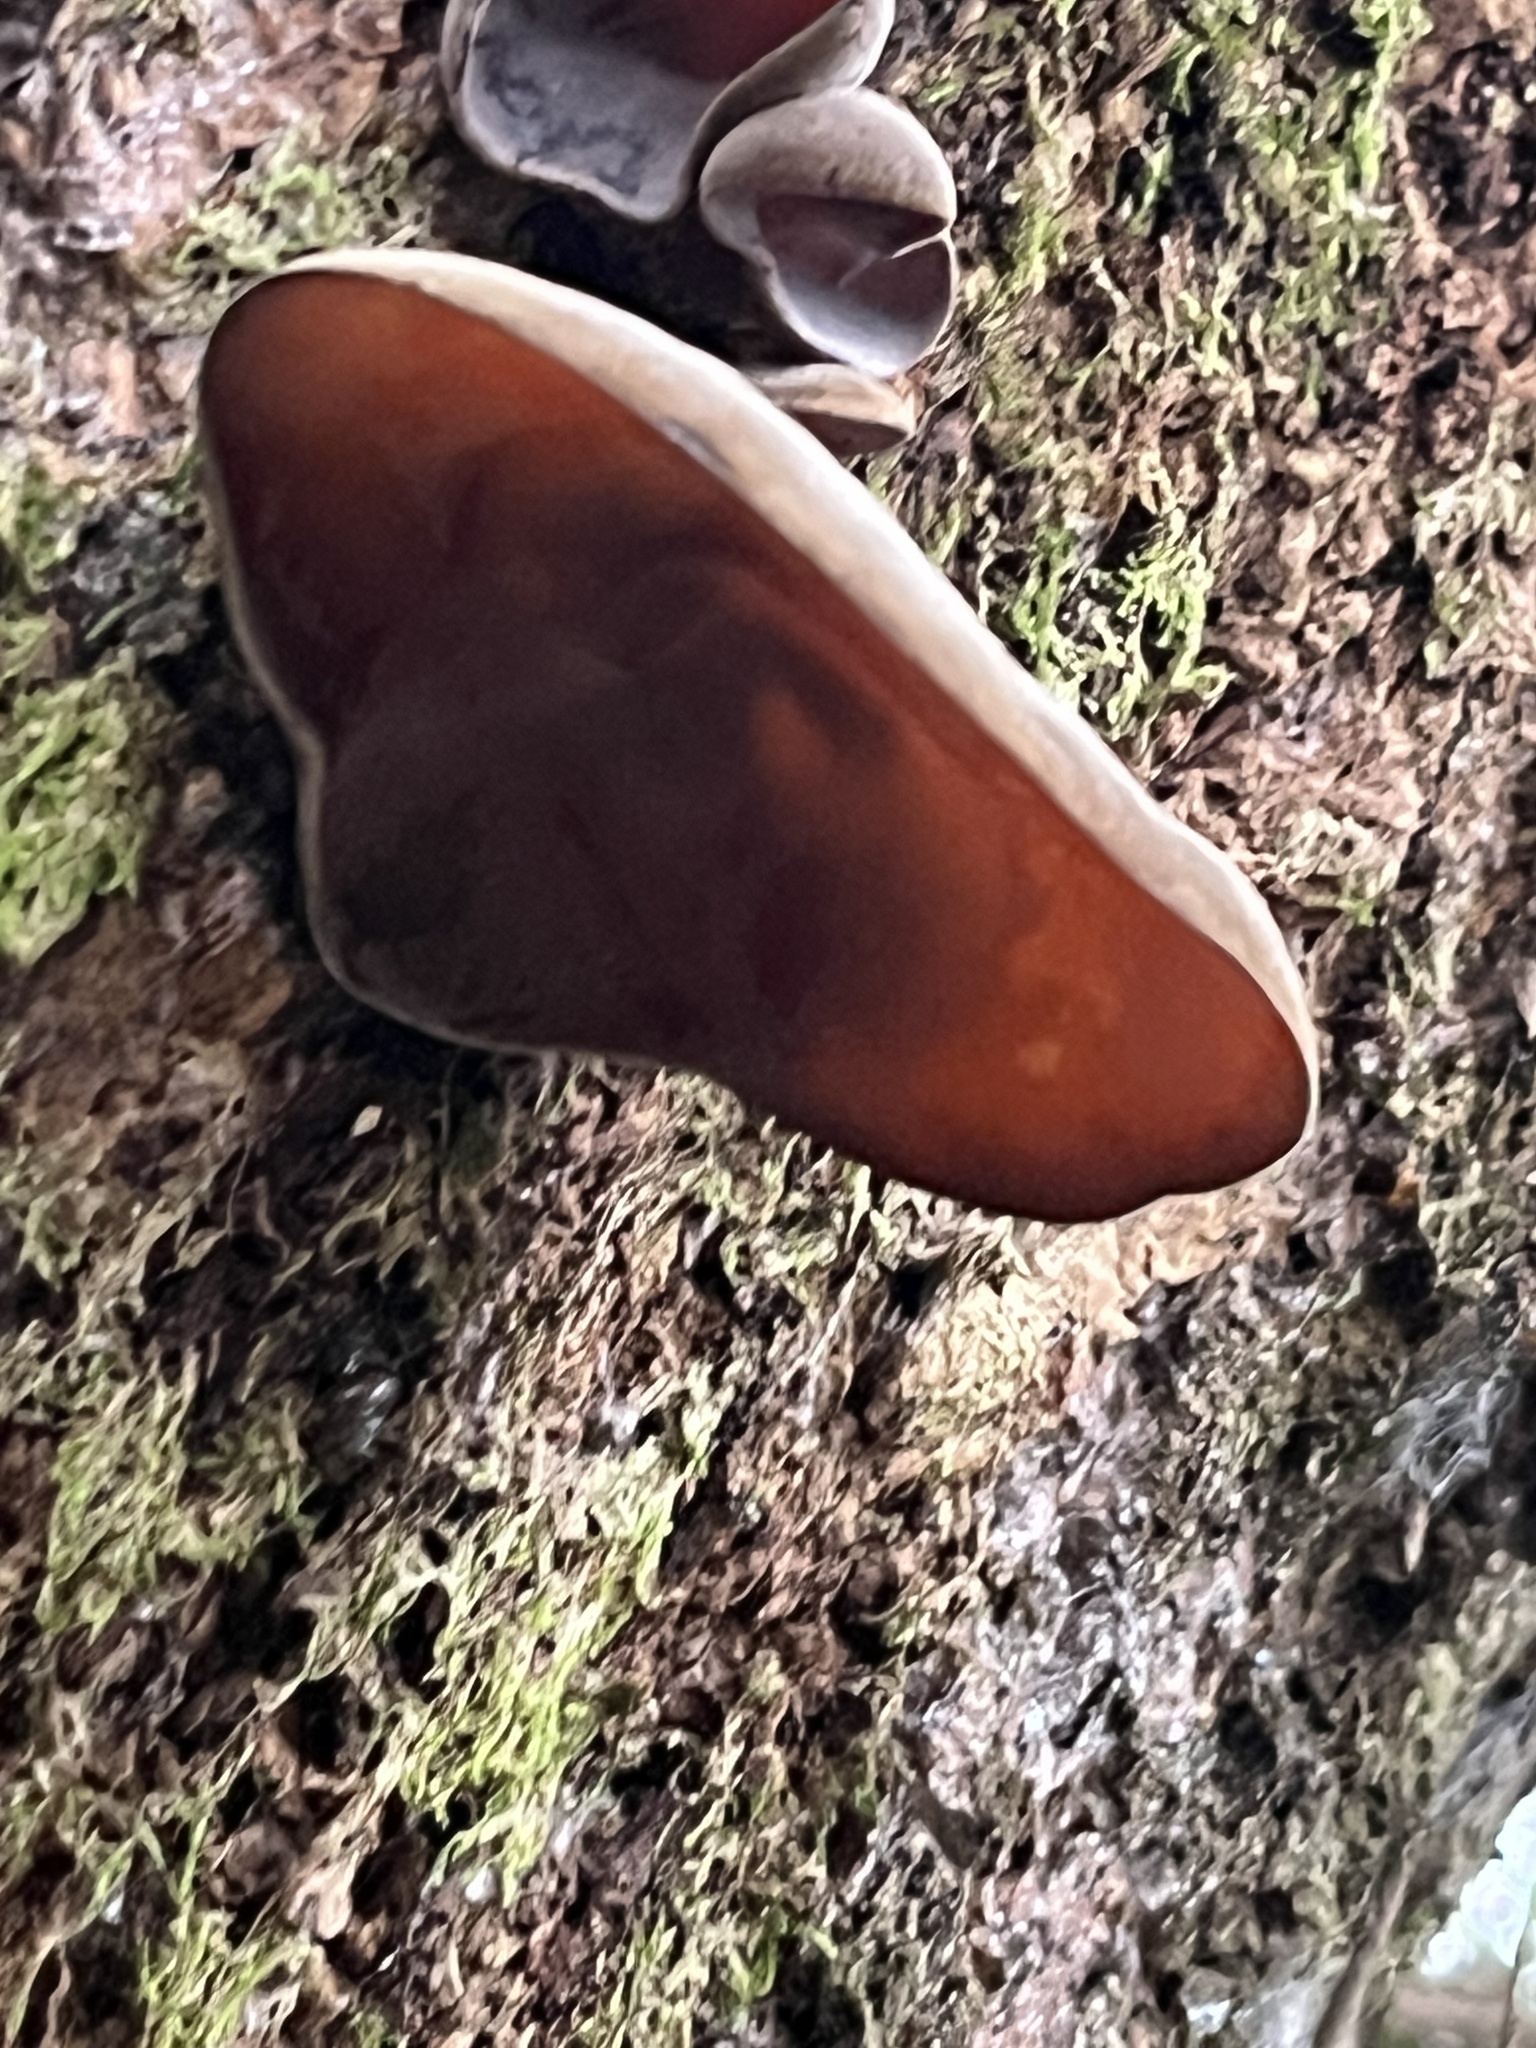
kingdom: Fungi
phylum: Basidiomycota
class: Agaricomycetes
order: Auriculariales
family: Auriculariaceae
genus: Auricularia
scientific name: Auricularia cornea
